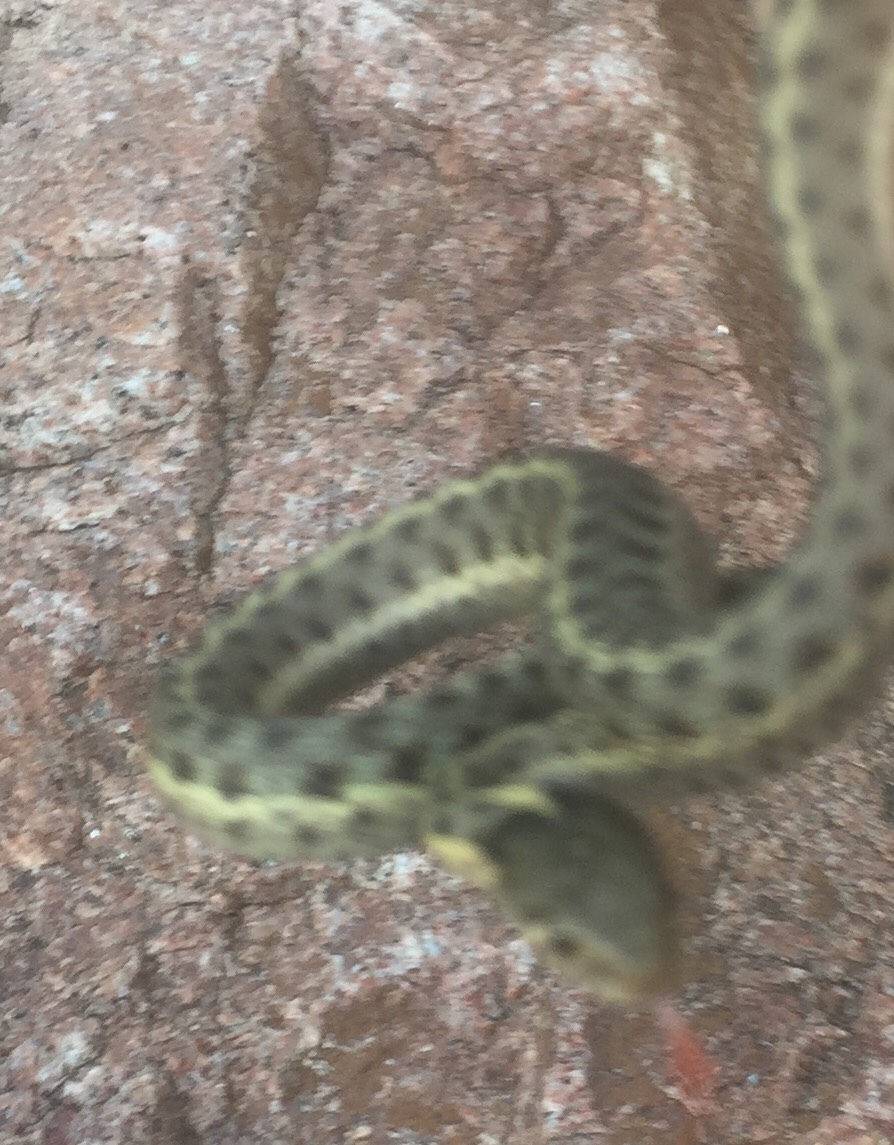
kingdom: Animalia
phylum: Chordata
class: Squamata
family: Colubridae
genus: Thamnophis
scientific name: Thamnophis elegans
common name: Western terrestrial garter snake
